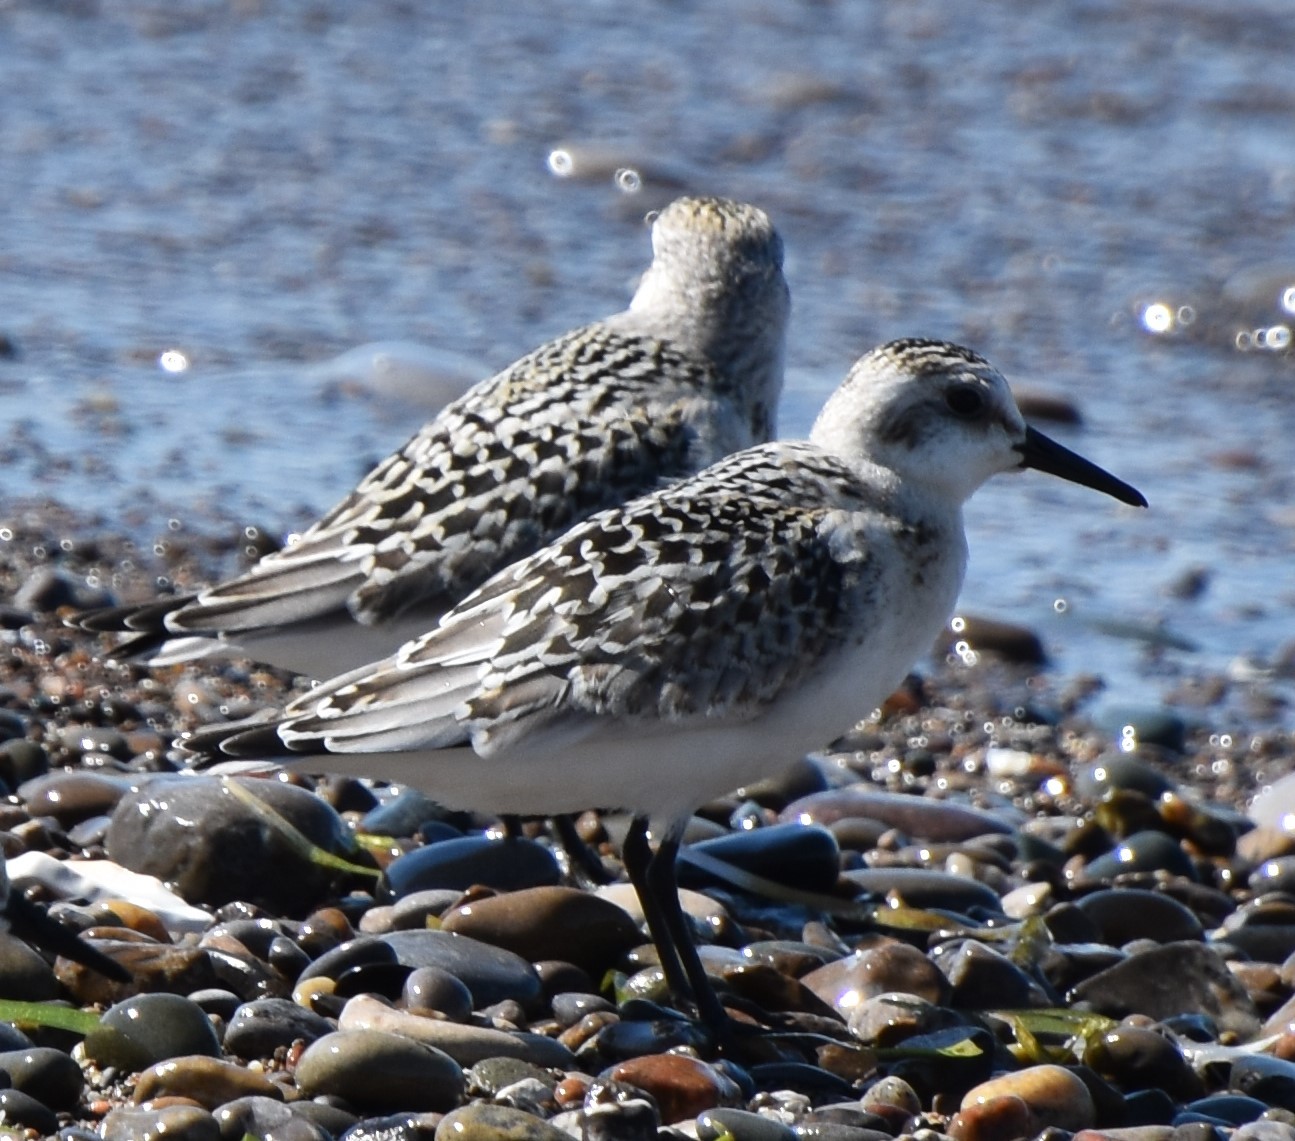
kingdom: Animalia
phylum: Chordata
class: Aves
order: Charadriiformes
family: Scolopacidae
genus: Calidris
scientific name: Calidris alba
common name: Sanderling
